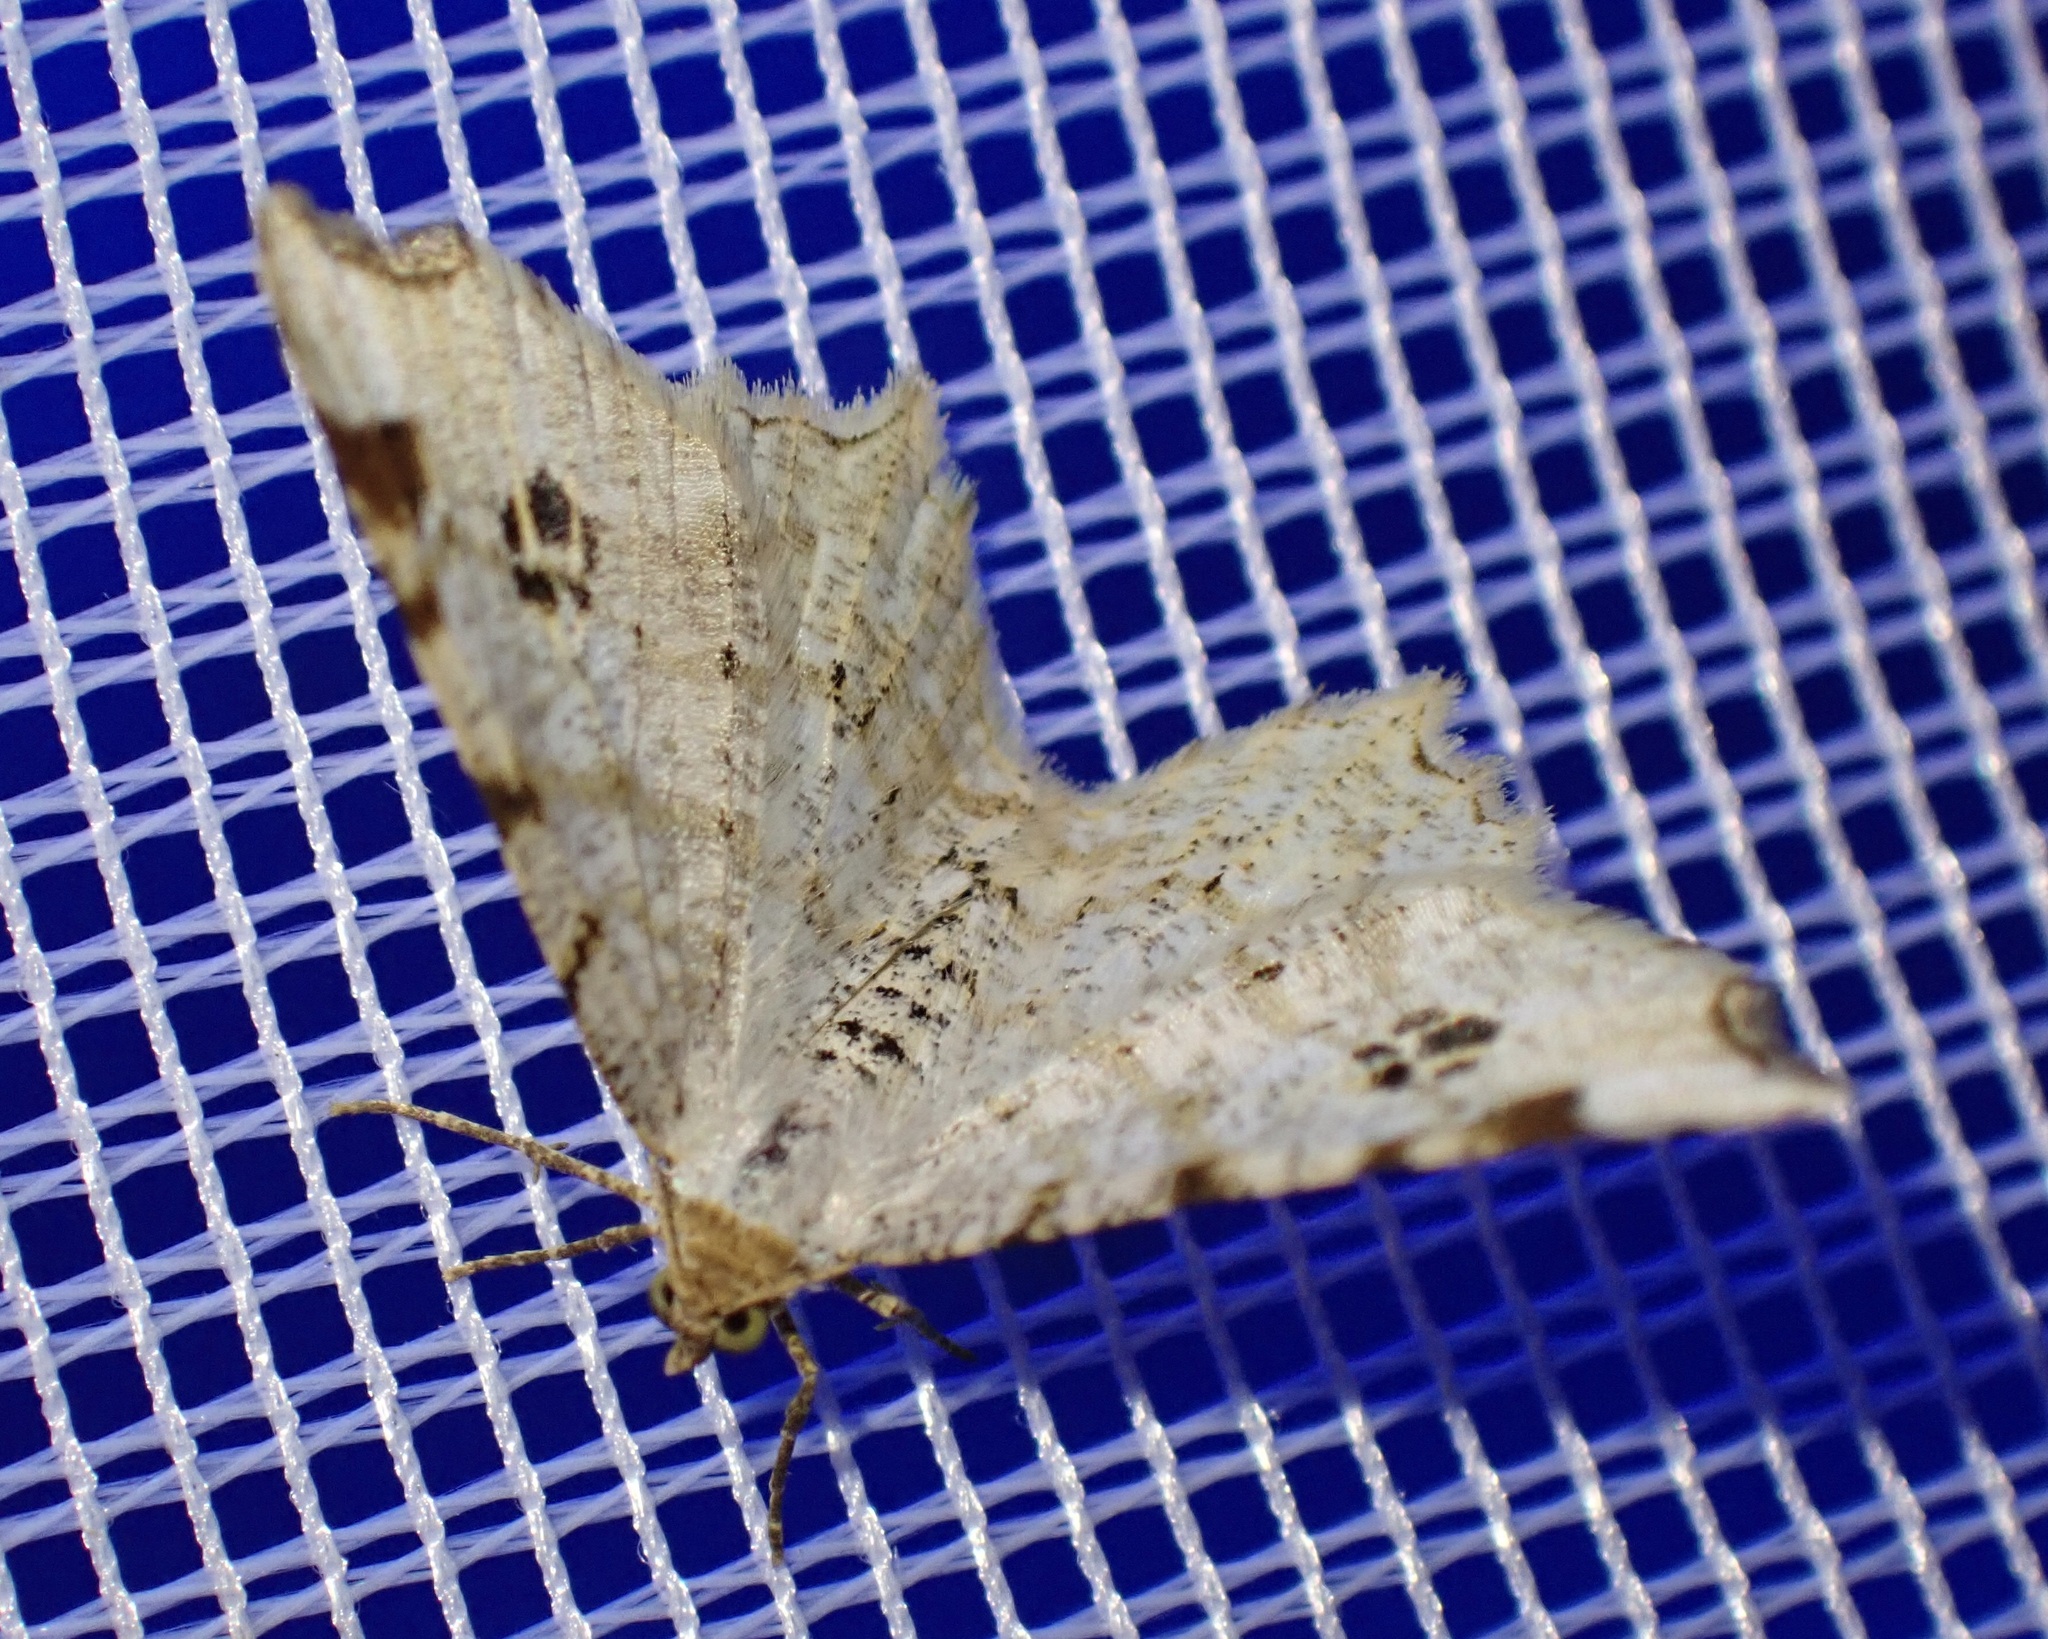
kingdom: Animalia
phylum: Arthropoda
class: Insecta
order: Lepidoptera
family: Geometridae
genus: Macaria
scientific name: Macaria notata
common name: Peacock moth
